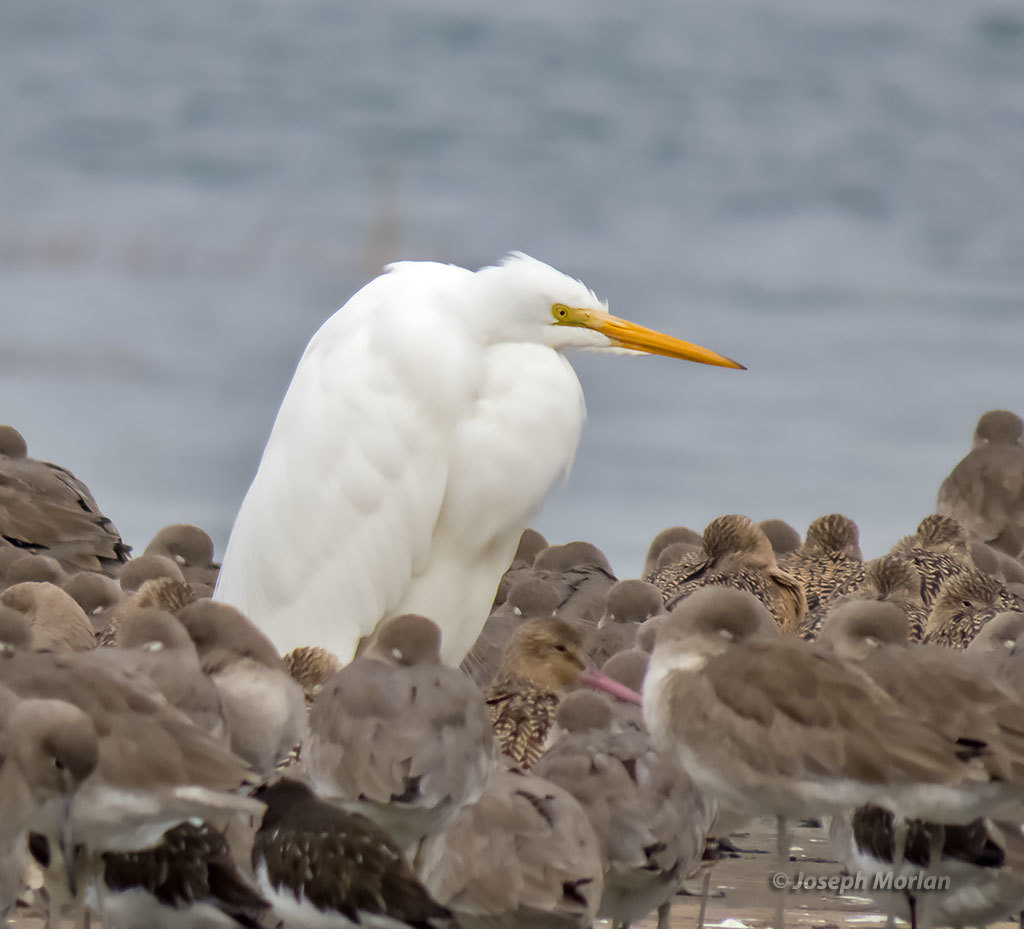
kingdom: Animalia
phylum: Chordata
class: Aves
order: Pelecaniformes
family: Ardeidae
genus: Ardea
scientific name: Ardea alba
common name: Great egret
